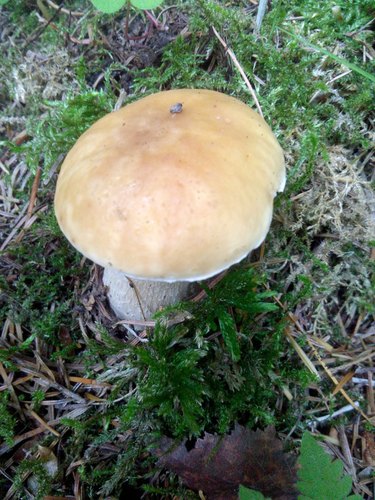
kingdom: Fungi
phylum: Basidiomycota
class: Agaricomycetes
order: Boletales
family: Boletaceae
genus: Boletus
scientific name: Boletus edulis
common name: Cep
